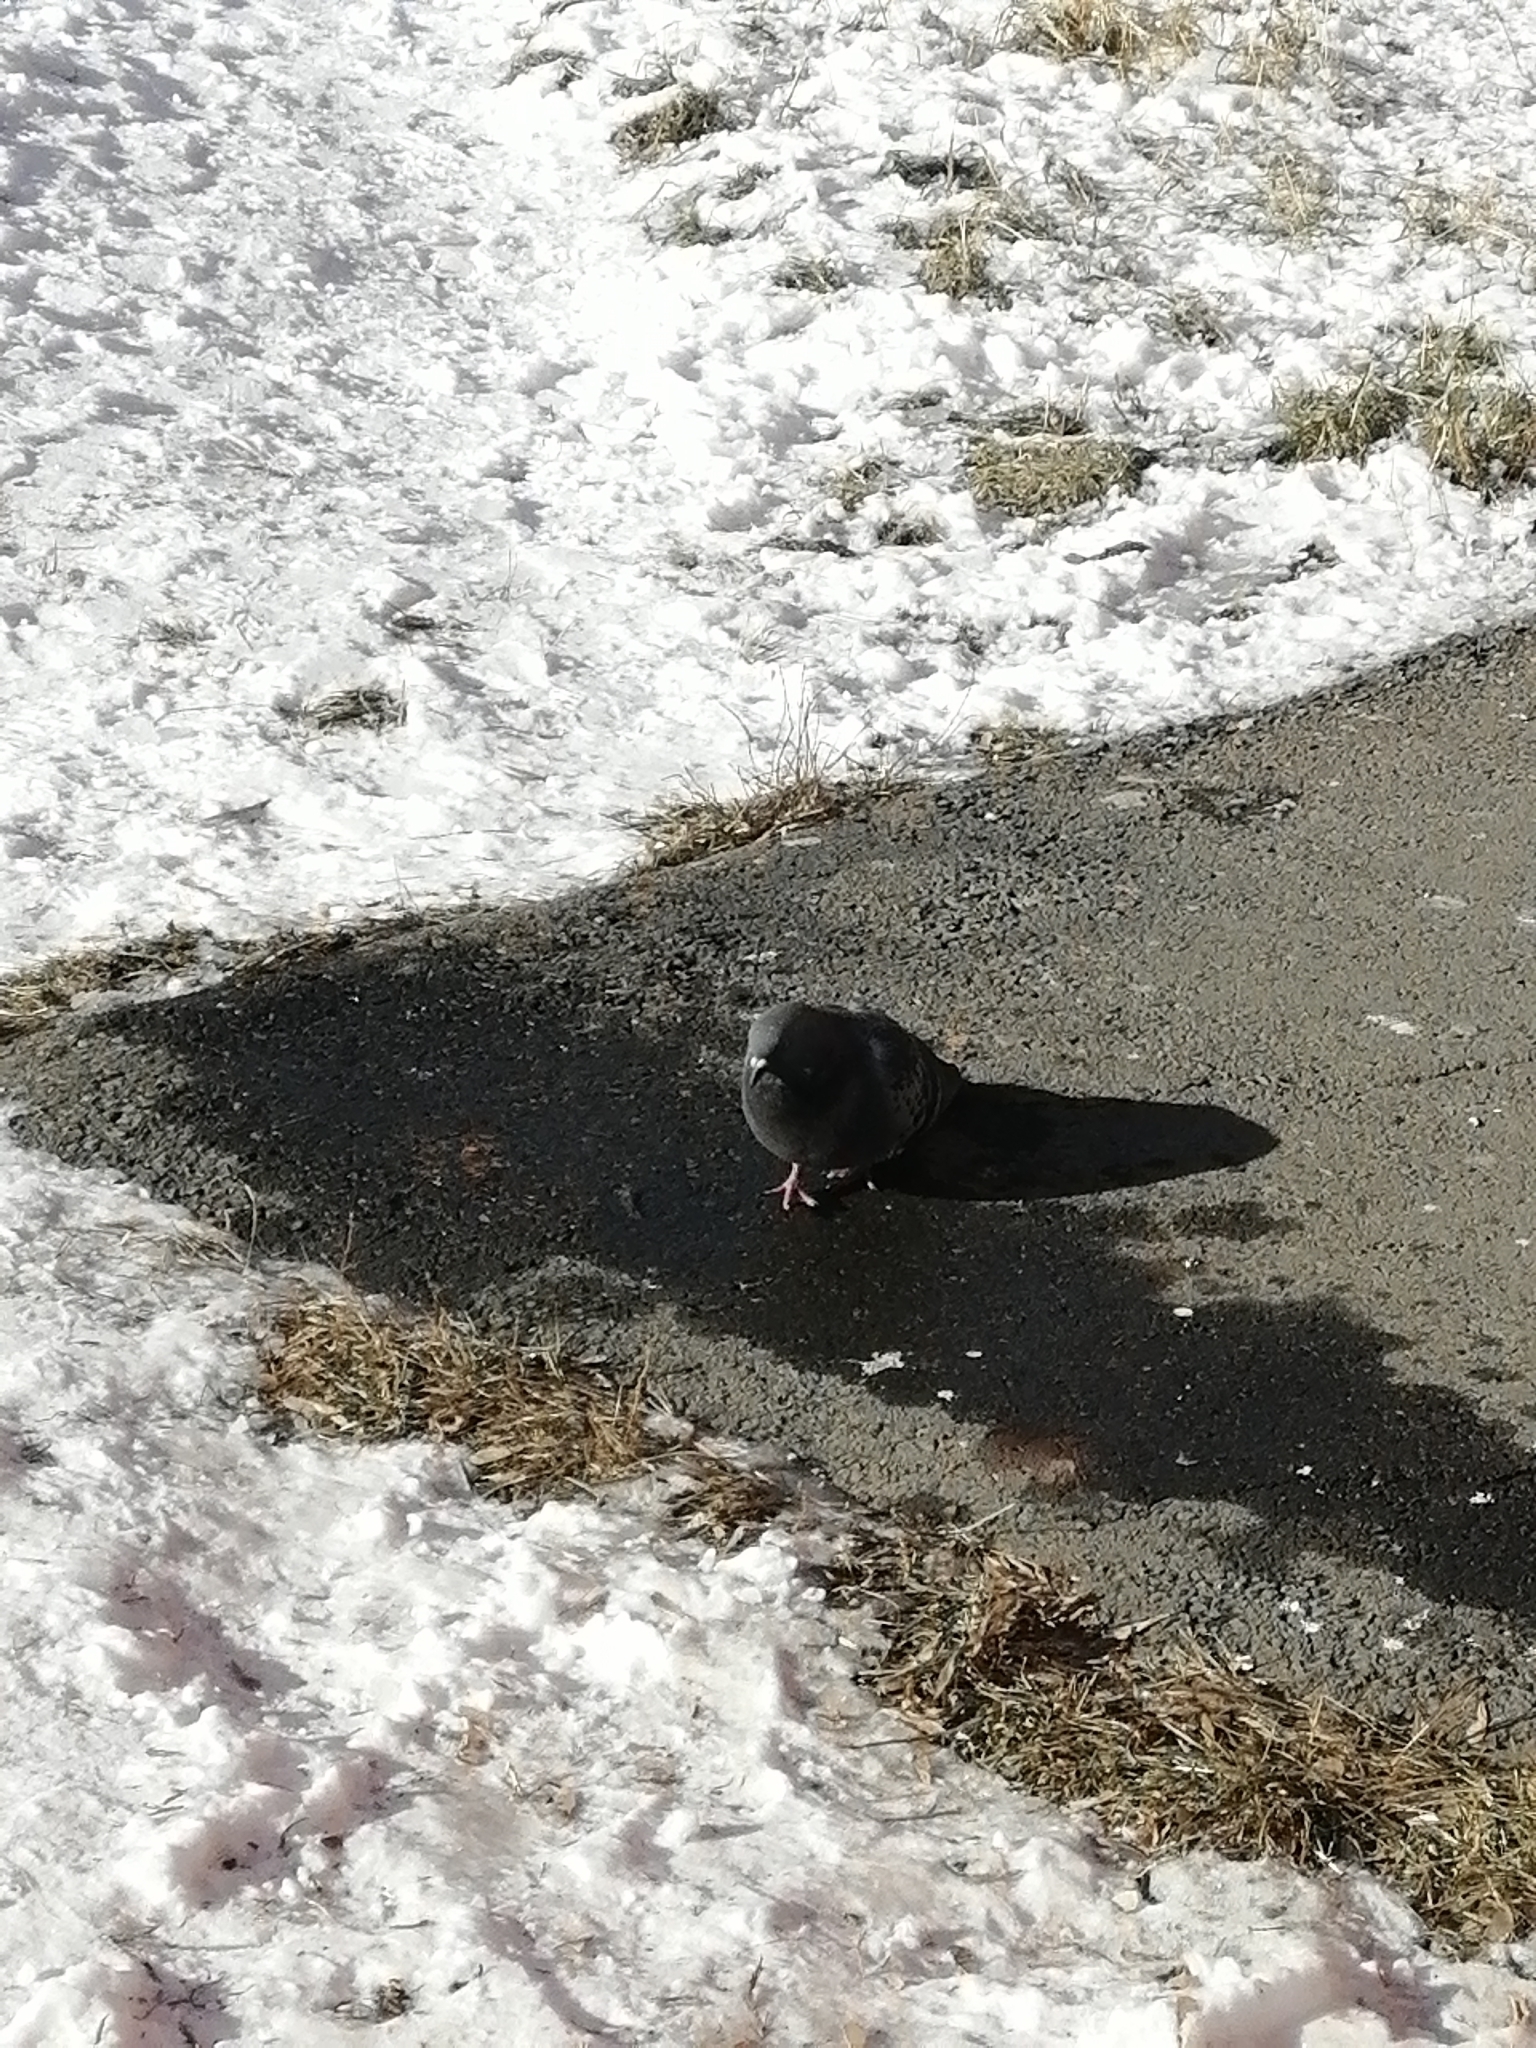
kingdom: Animalia
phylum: Chordata
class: Aves
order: Columbiformes
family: Columbidae
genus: Columba
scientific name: Columba livia
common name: Rock pigeon
